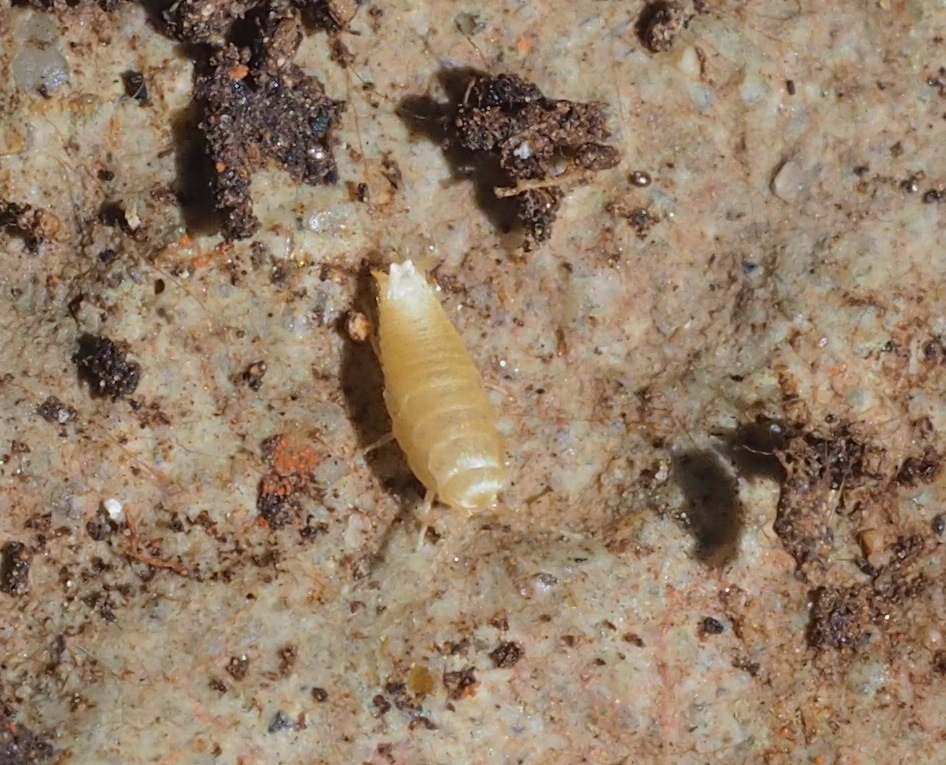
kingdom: Animalia
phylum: Arthropoda
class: Insecta
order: Zygentoma
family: Nicoletiidae
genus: Atelura
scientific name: Atelura formicaria
